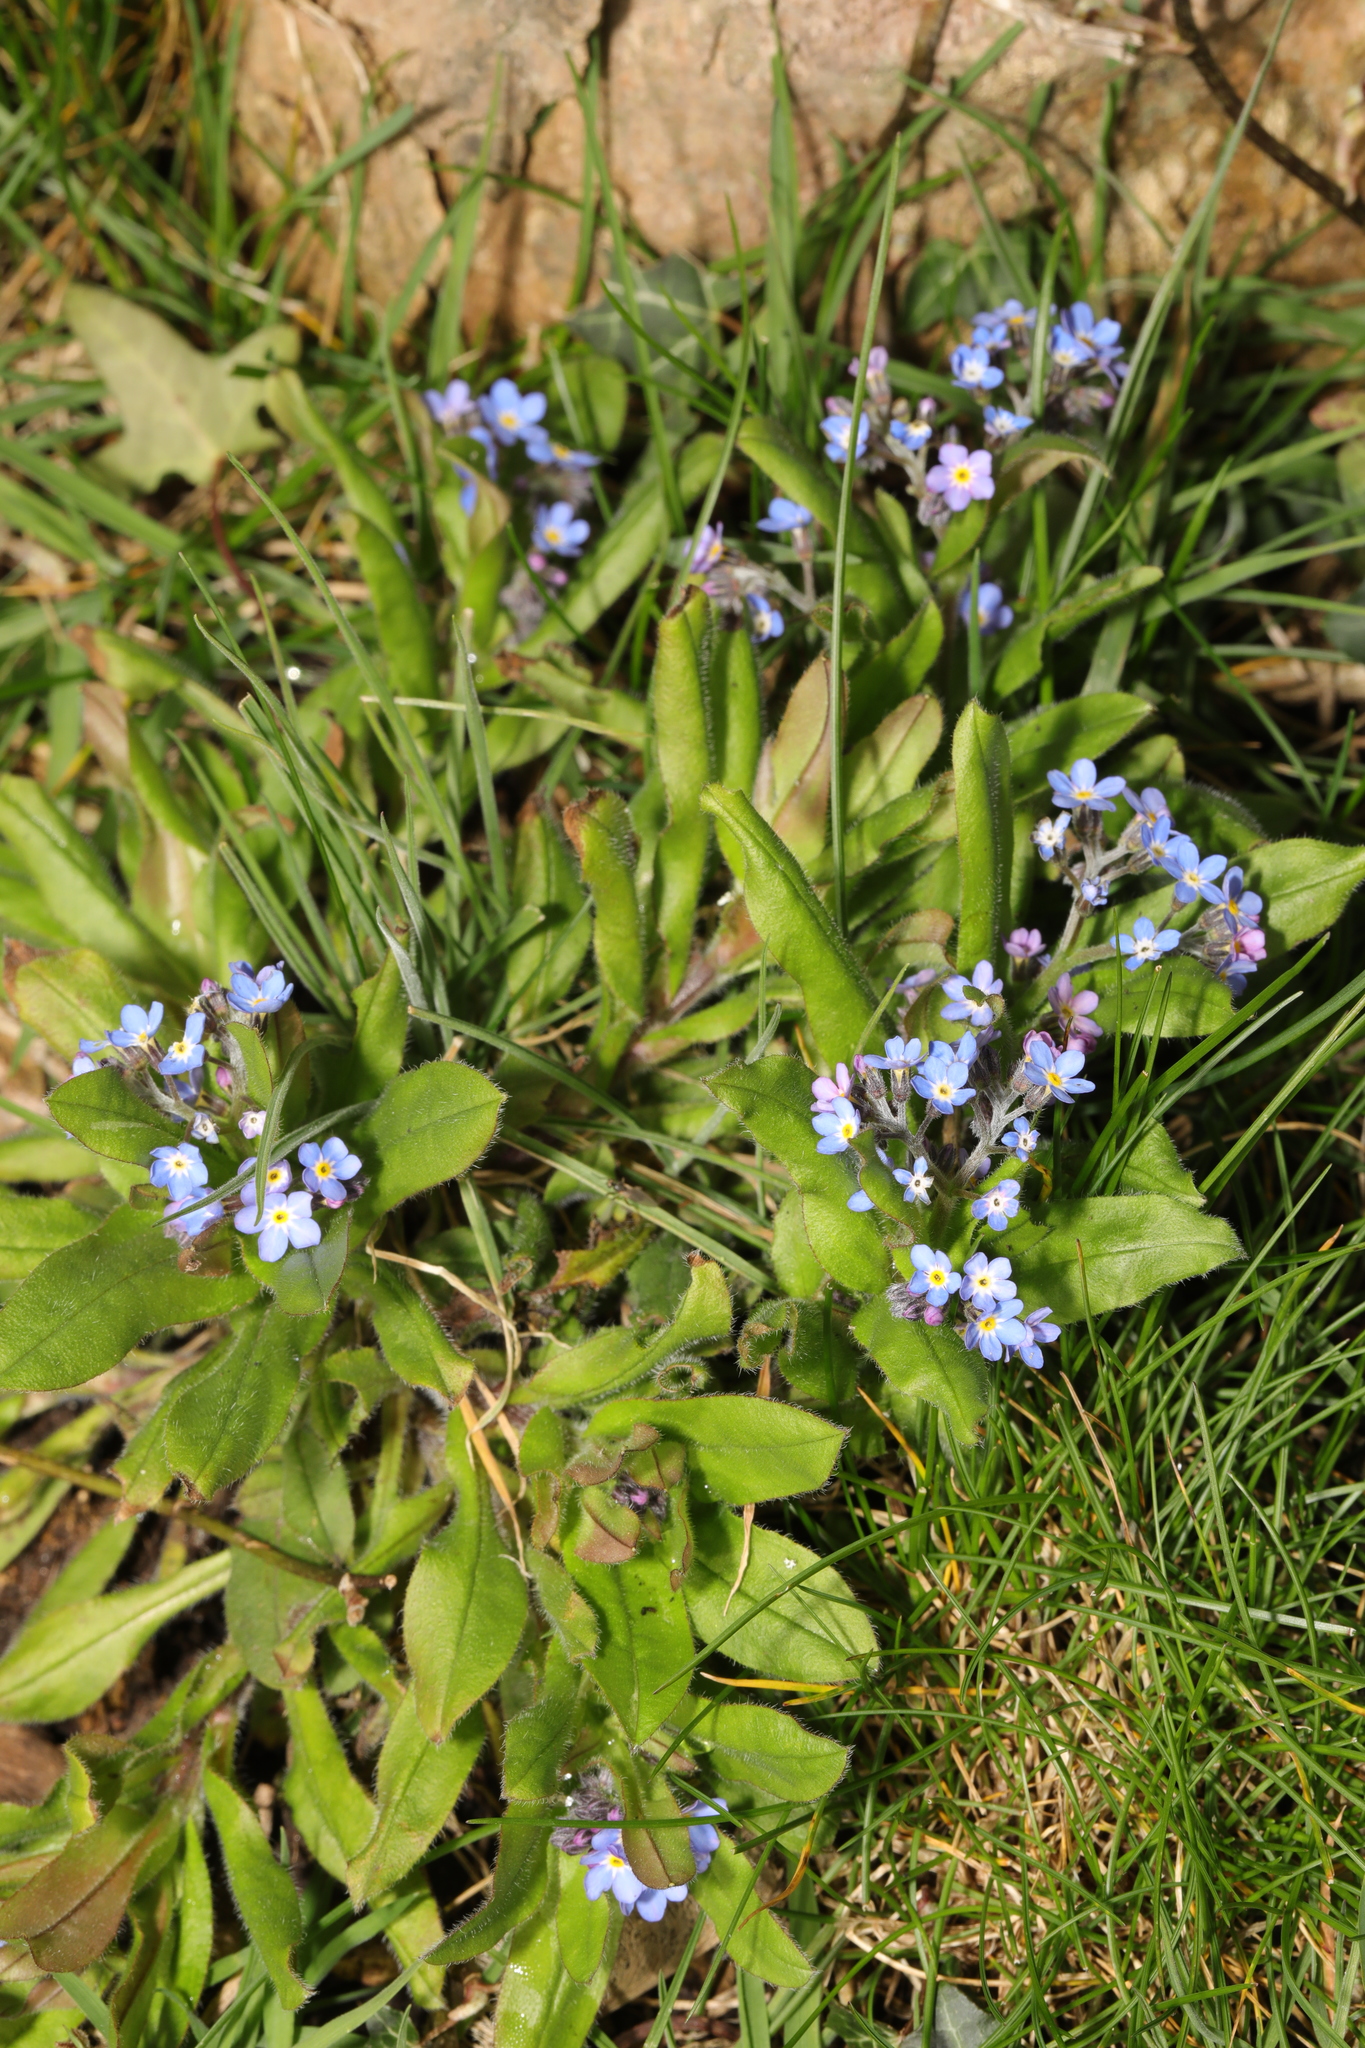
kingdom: Plantae
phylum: Tracheophyta
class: Magnoliopsida
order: Boraginales
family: Boraginaceae
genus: Myosotis
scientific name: Myosotis sylvatica
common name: Wood forget-me-not
